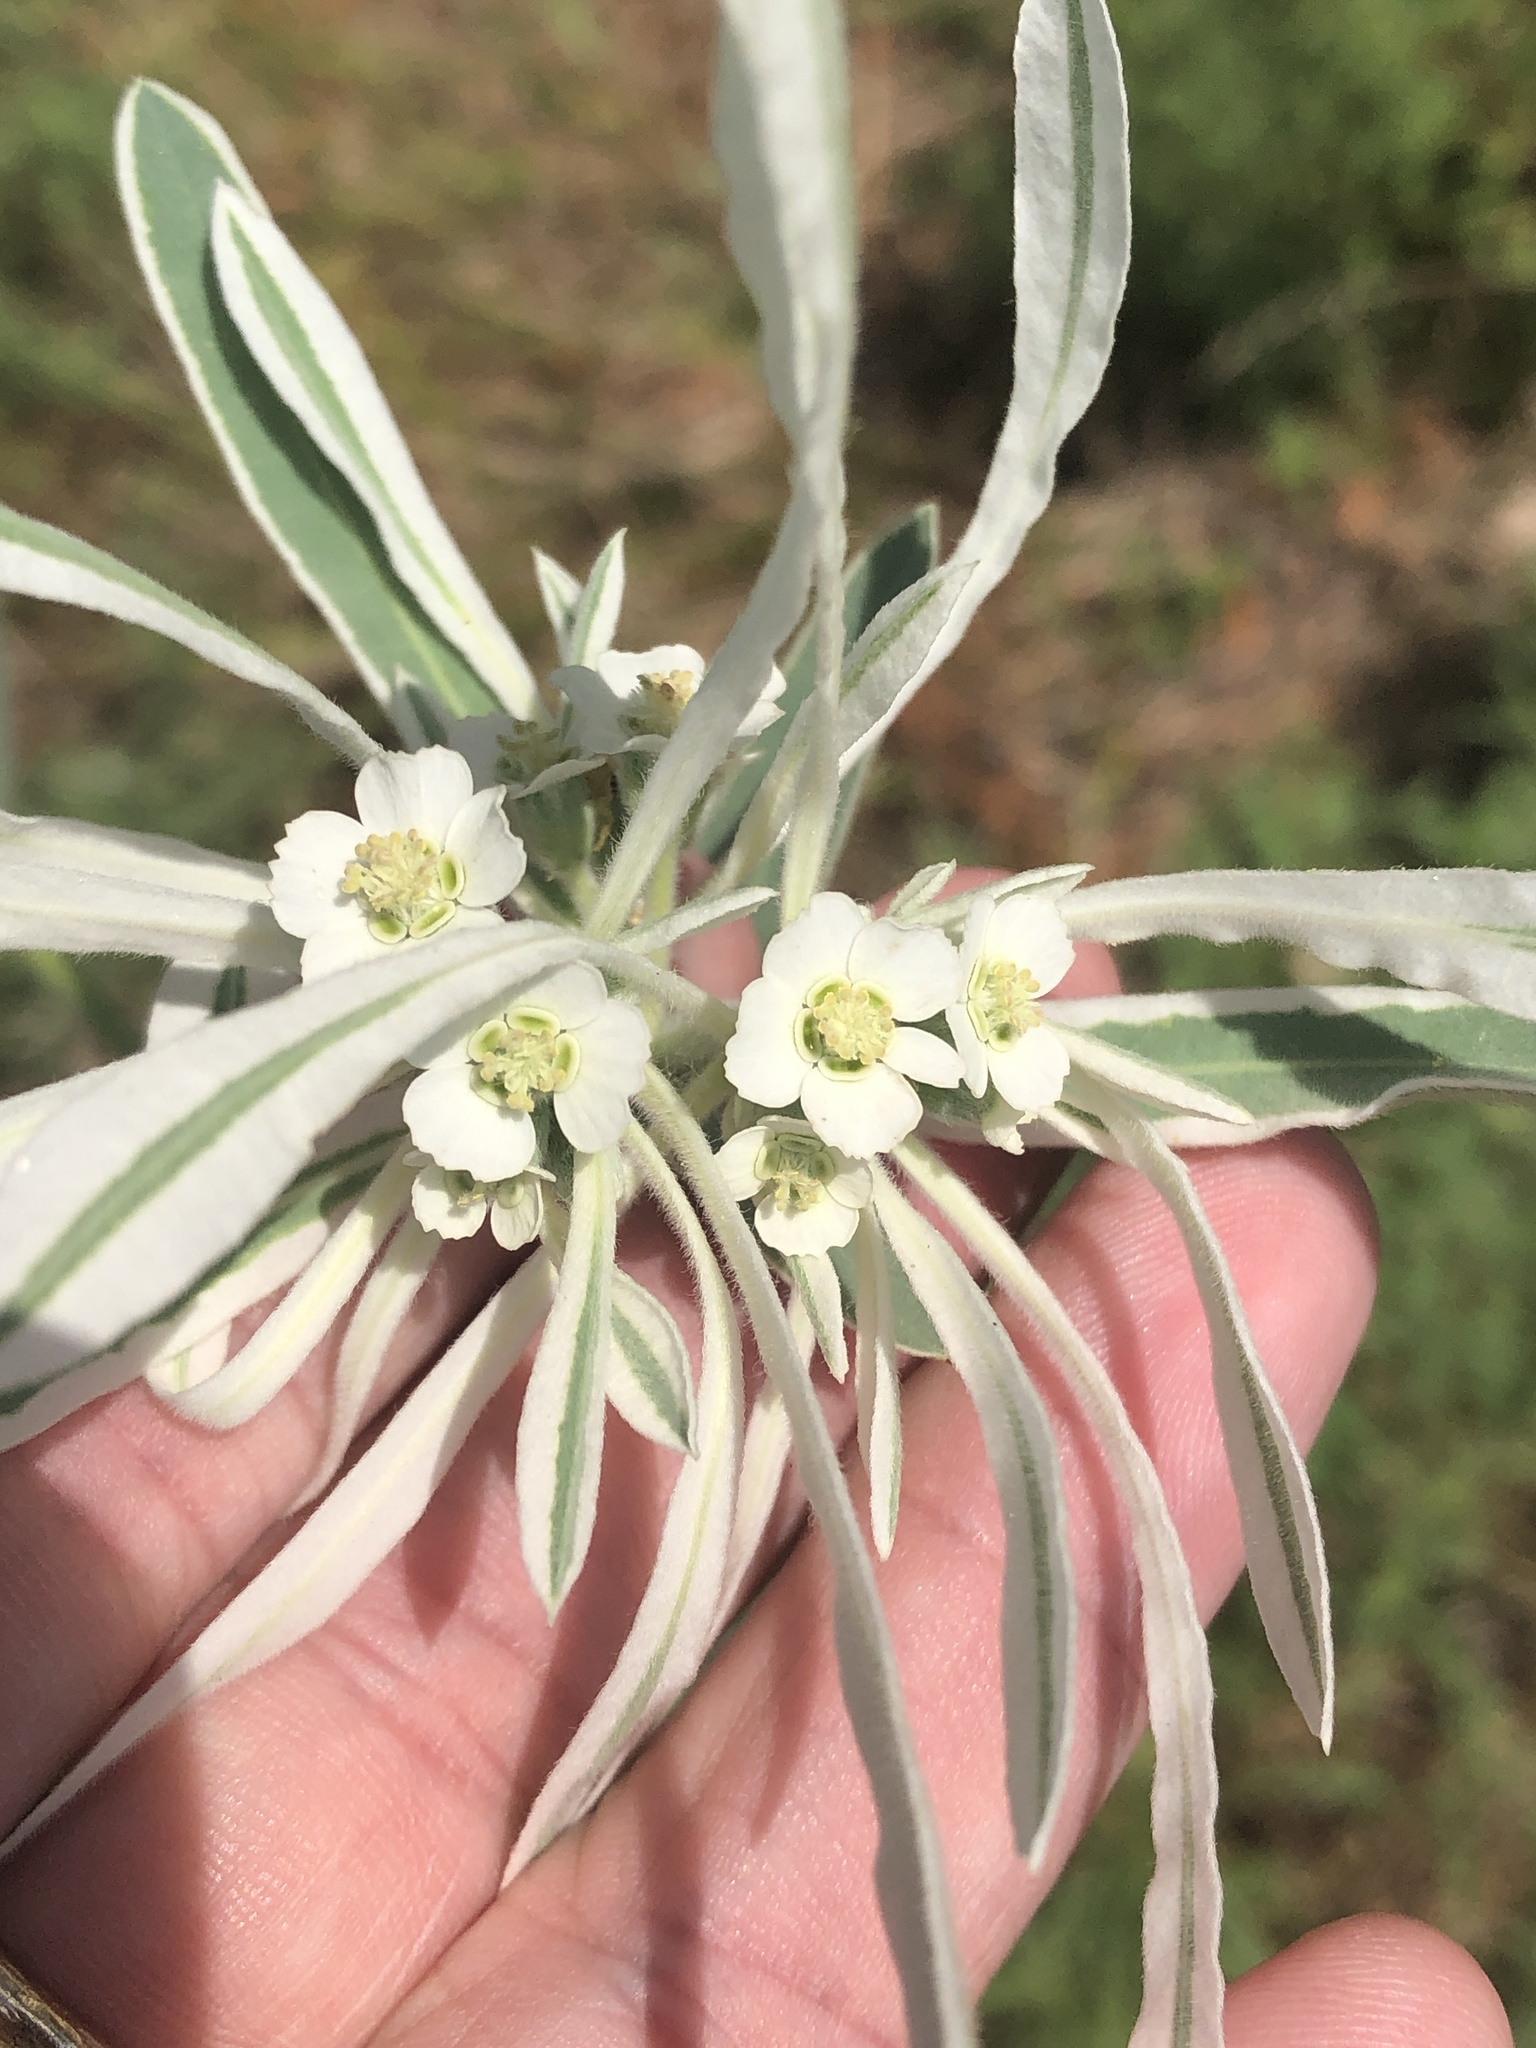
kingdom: Plantae
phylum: Tracheophyta
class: Magnoliopsida
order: Malpighiales
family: Euphorbiaceae
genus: Euphorbia
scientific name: Euphorbia bicolor
